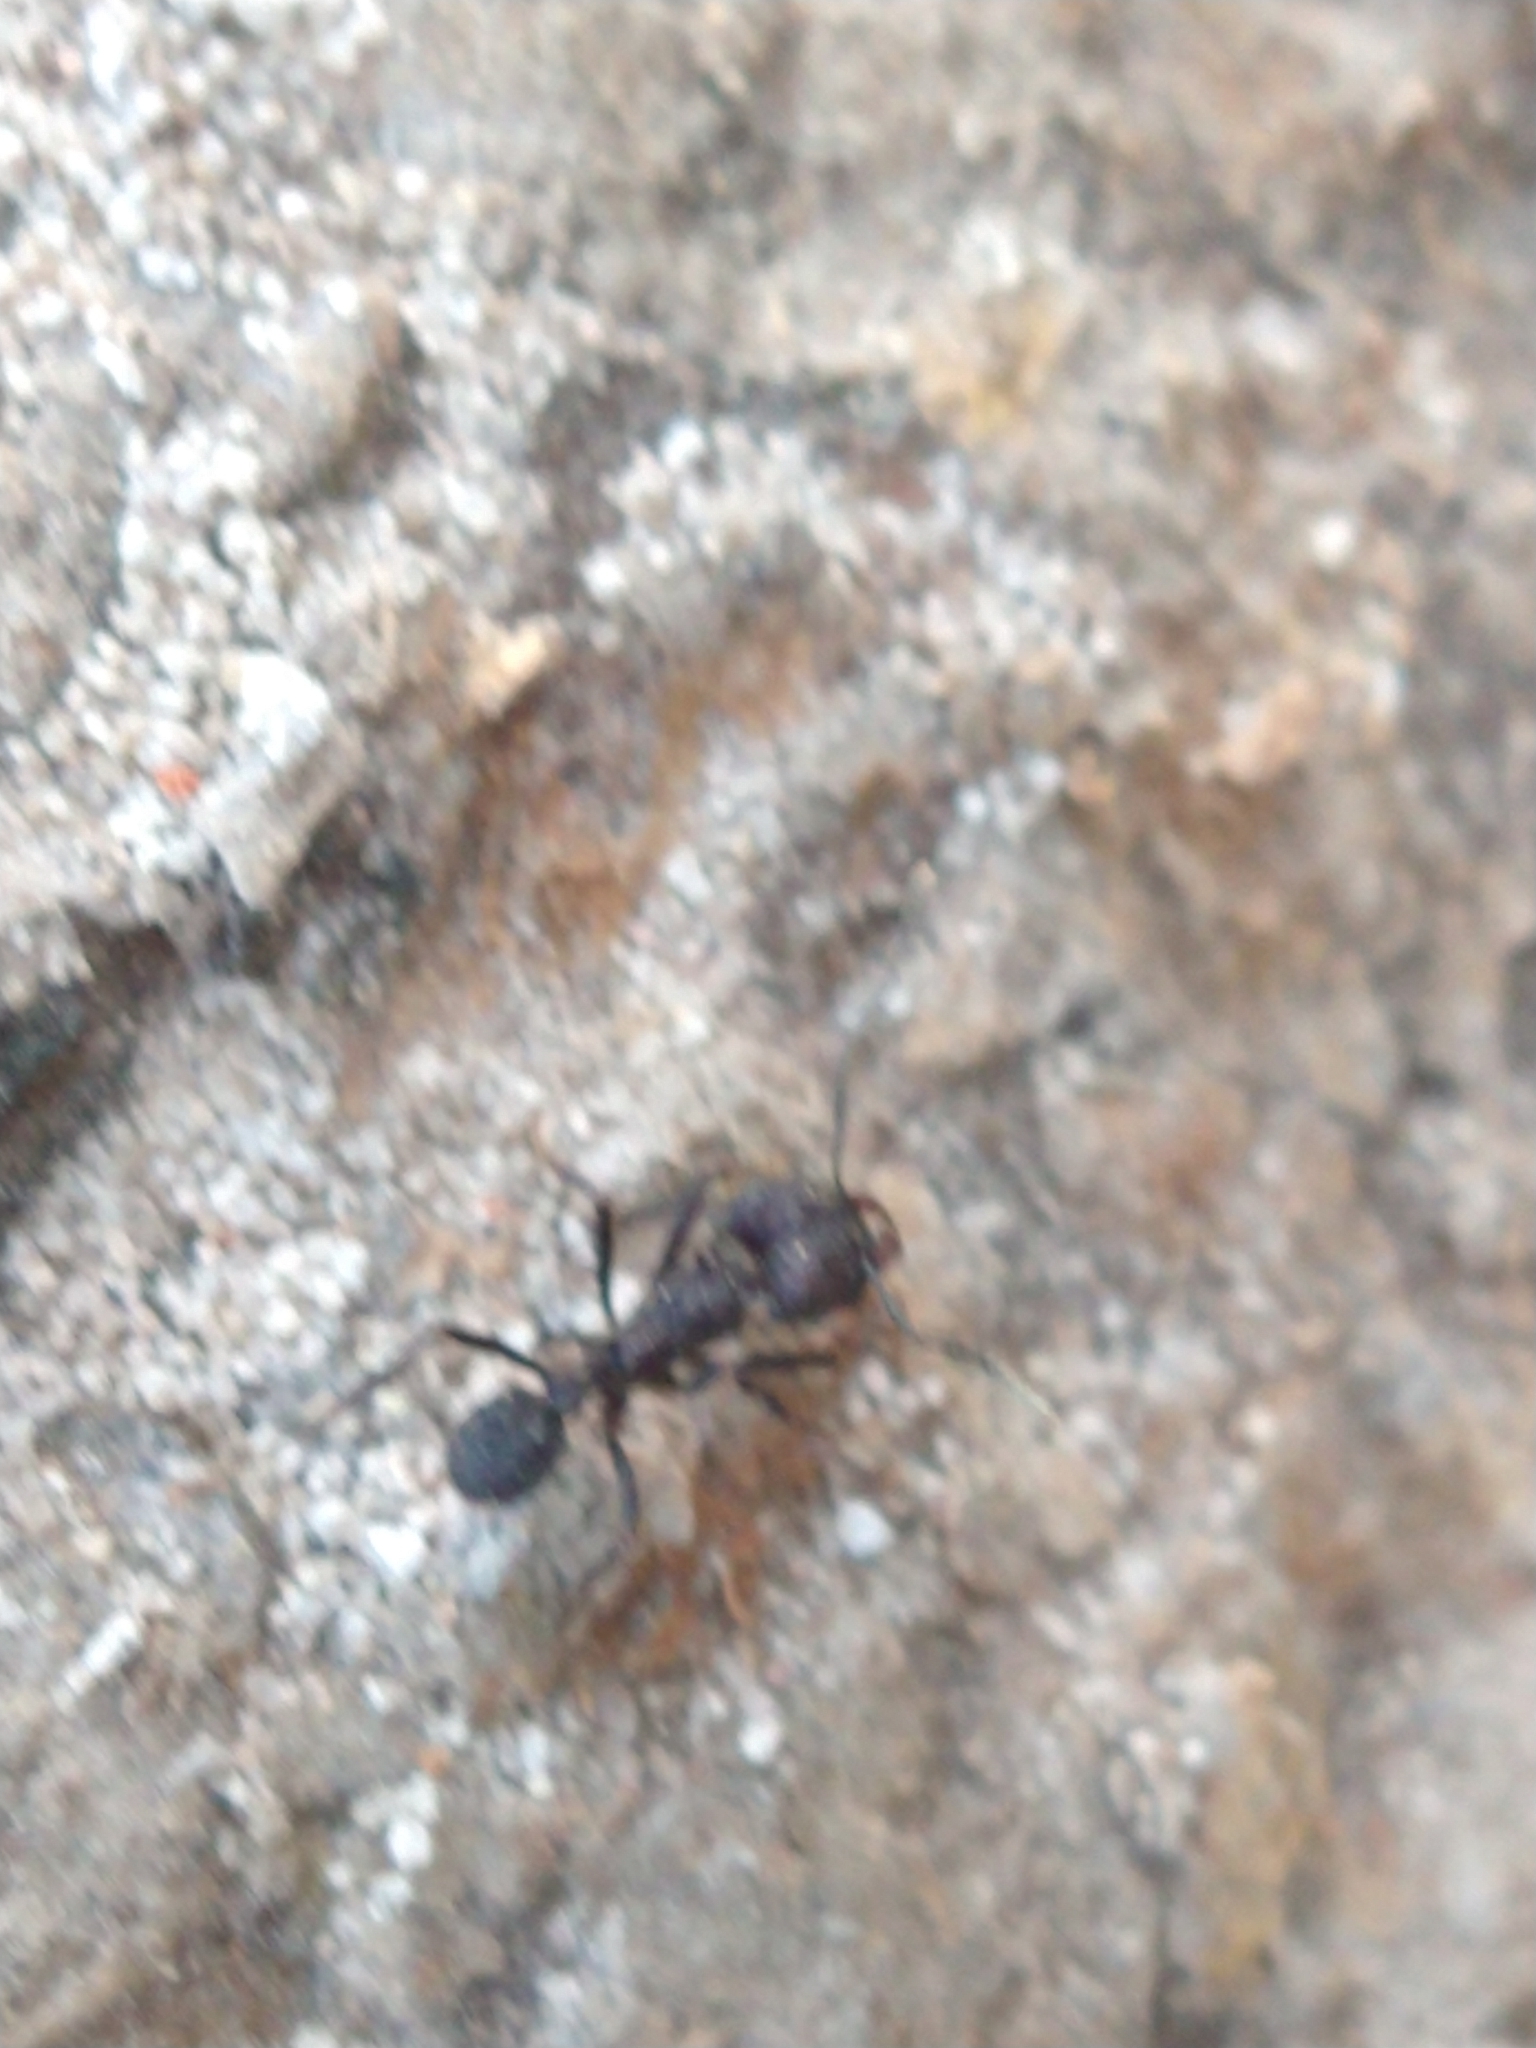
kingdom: Animalia
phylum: Arthropoda
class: Insecta
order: Hymenoptera
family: Formicidae
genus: Acromyrmex
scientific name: Acromyrmex
